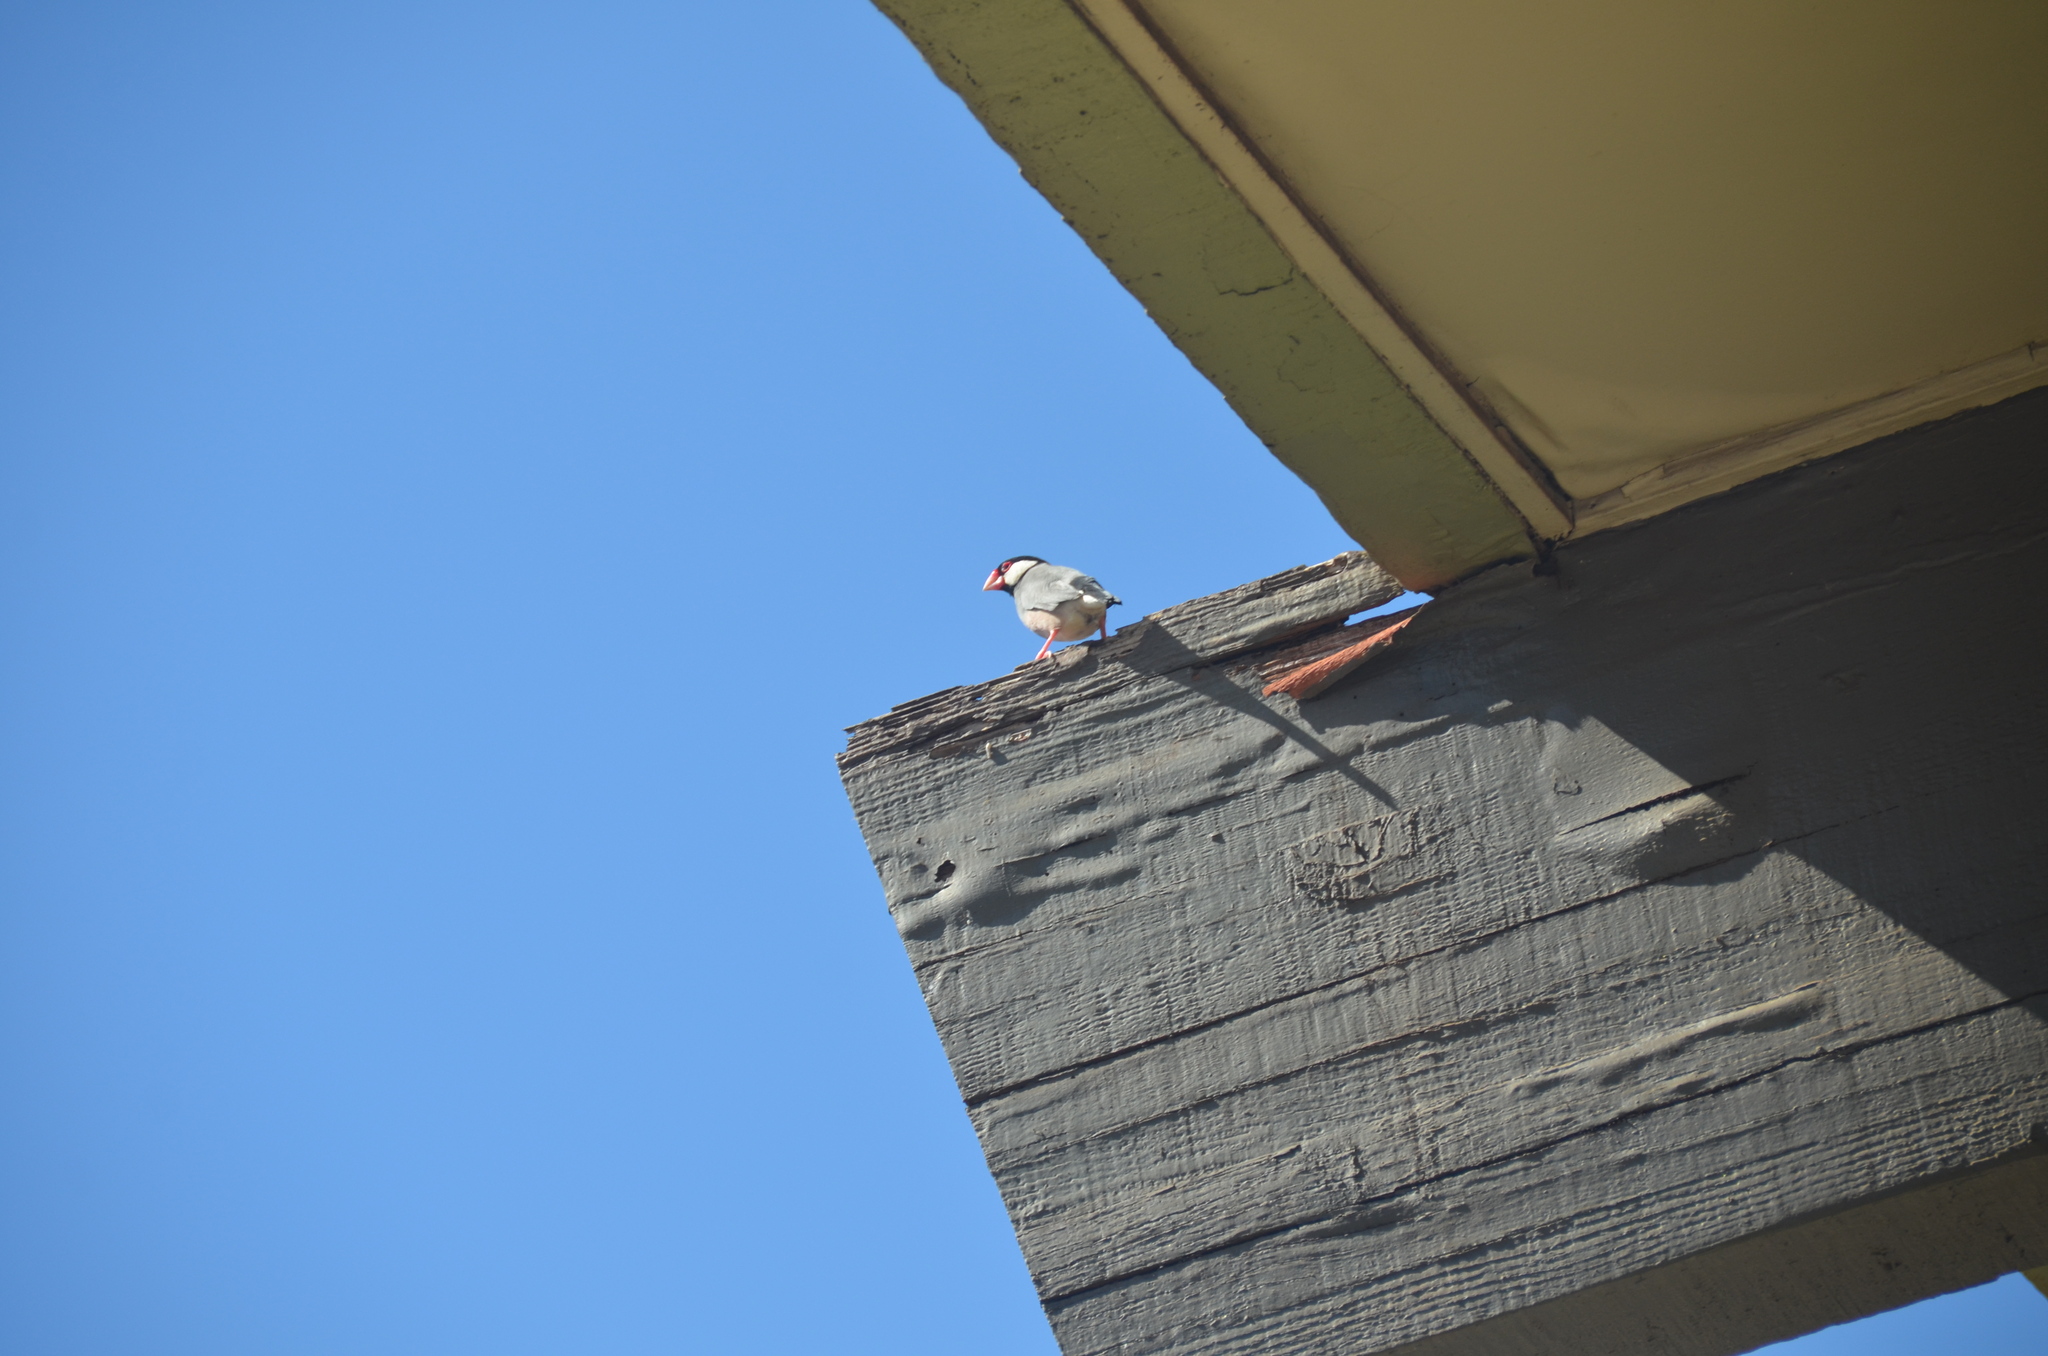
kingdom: Animalia
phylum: Chordata
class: Aves
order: Passeriformes
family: Estrildidae
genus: Lonchura
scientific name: Lonchura oryzivora
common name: Java sparrow
